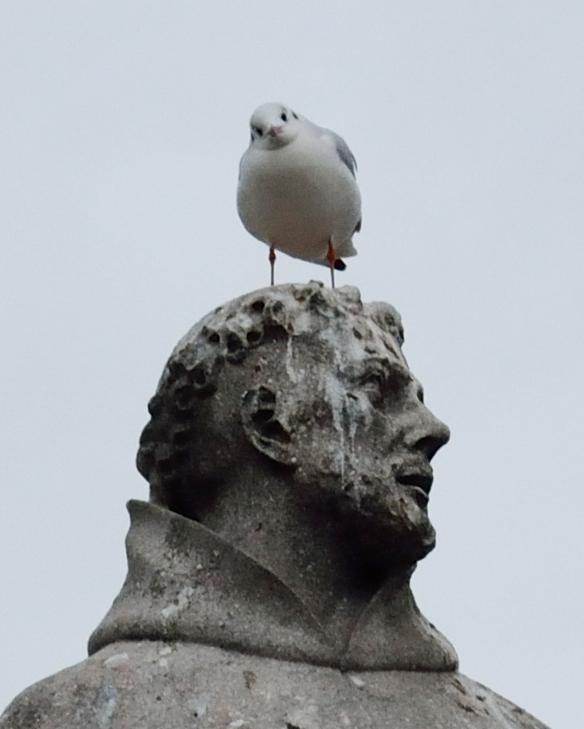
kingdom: Animalia
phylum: Chordata
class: Aves
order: Charadriiformes
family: Laridae
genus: Chroicocephalus
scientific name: Chroicocephalus ridibundus
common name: Black-headed gull
